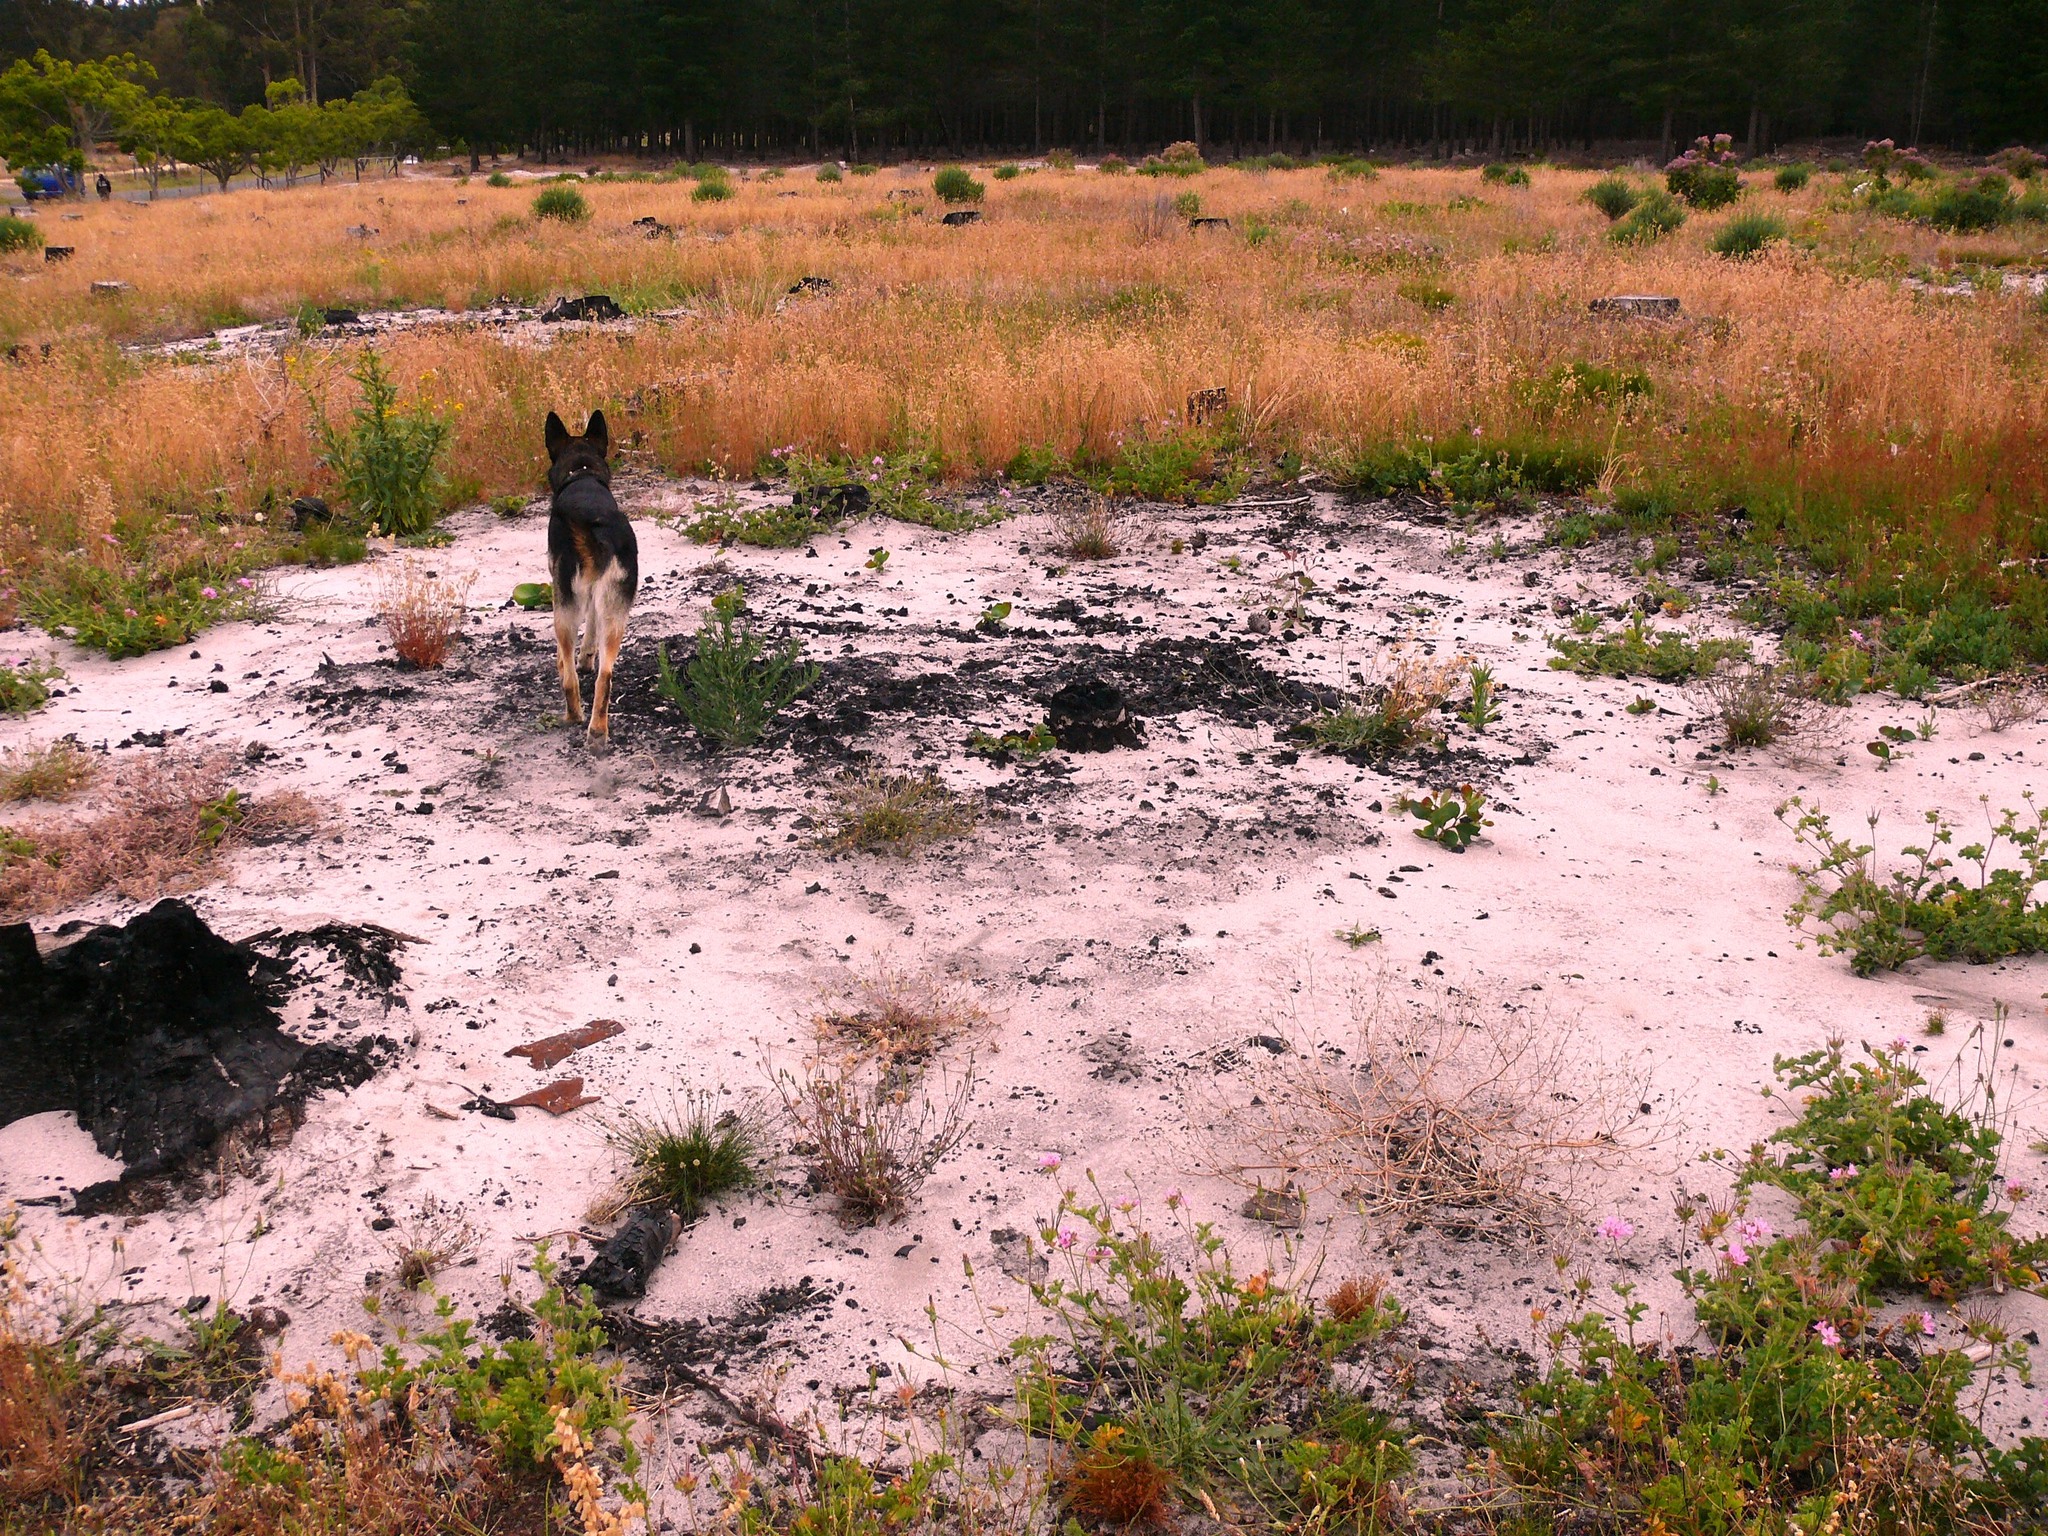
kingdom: Plantae
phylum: Tracheophyta
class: Magnoliopsida
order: Geraniales
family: Geraniaceae
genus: Pelargonium
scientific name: Pelargonium capitatum
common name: Rose scented geranium
